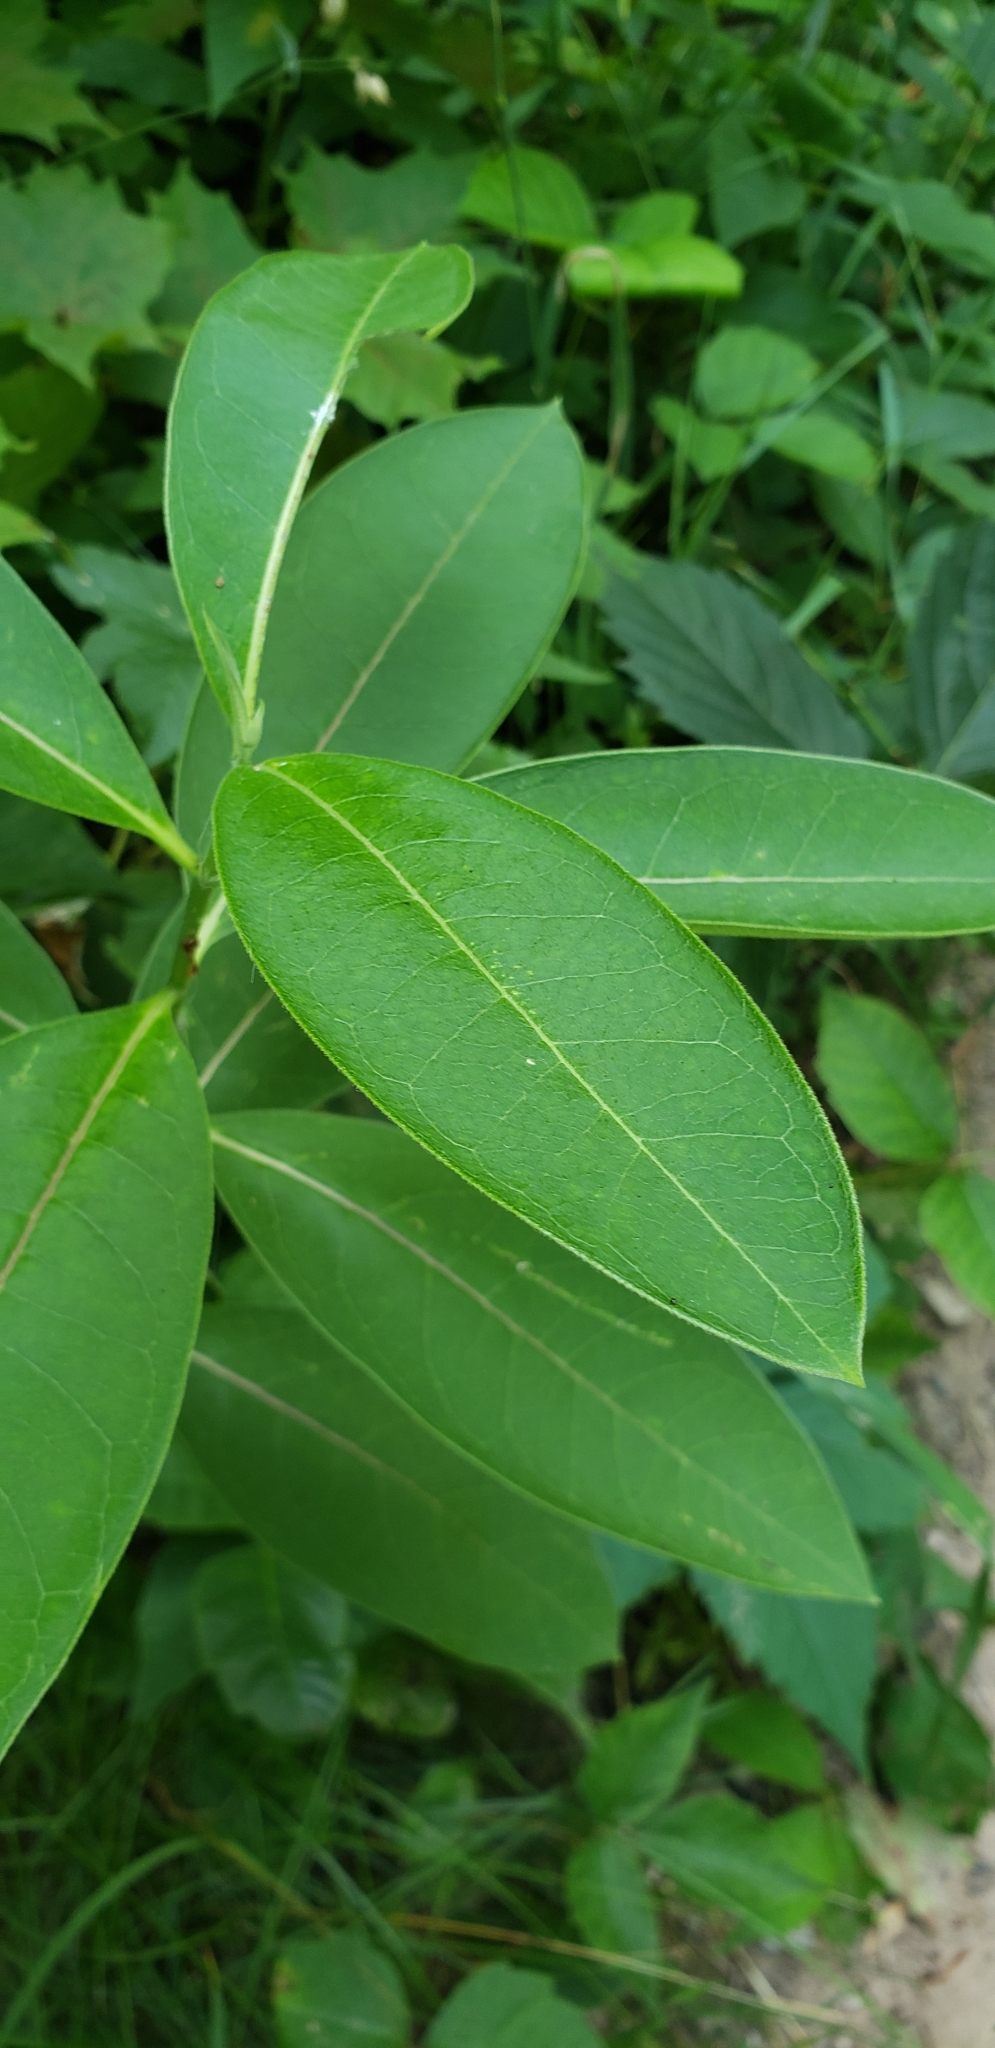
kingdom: Plantae
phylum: Tracheophyta
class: Magnoliopsida
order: Gentianales
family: Apocynaceae
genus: Asclepias
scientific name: Asclepias syriaca
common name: Common milkweed
